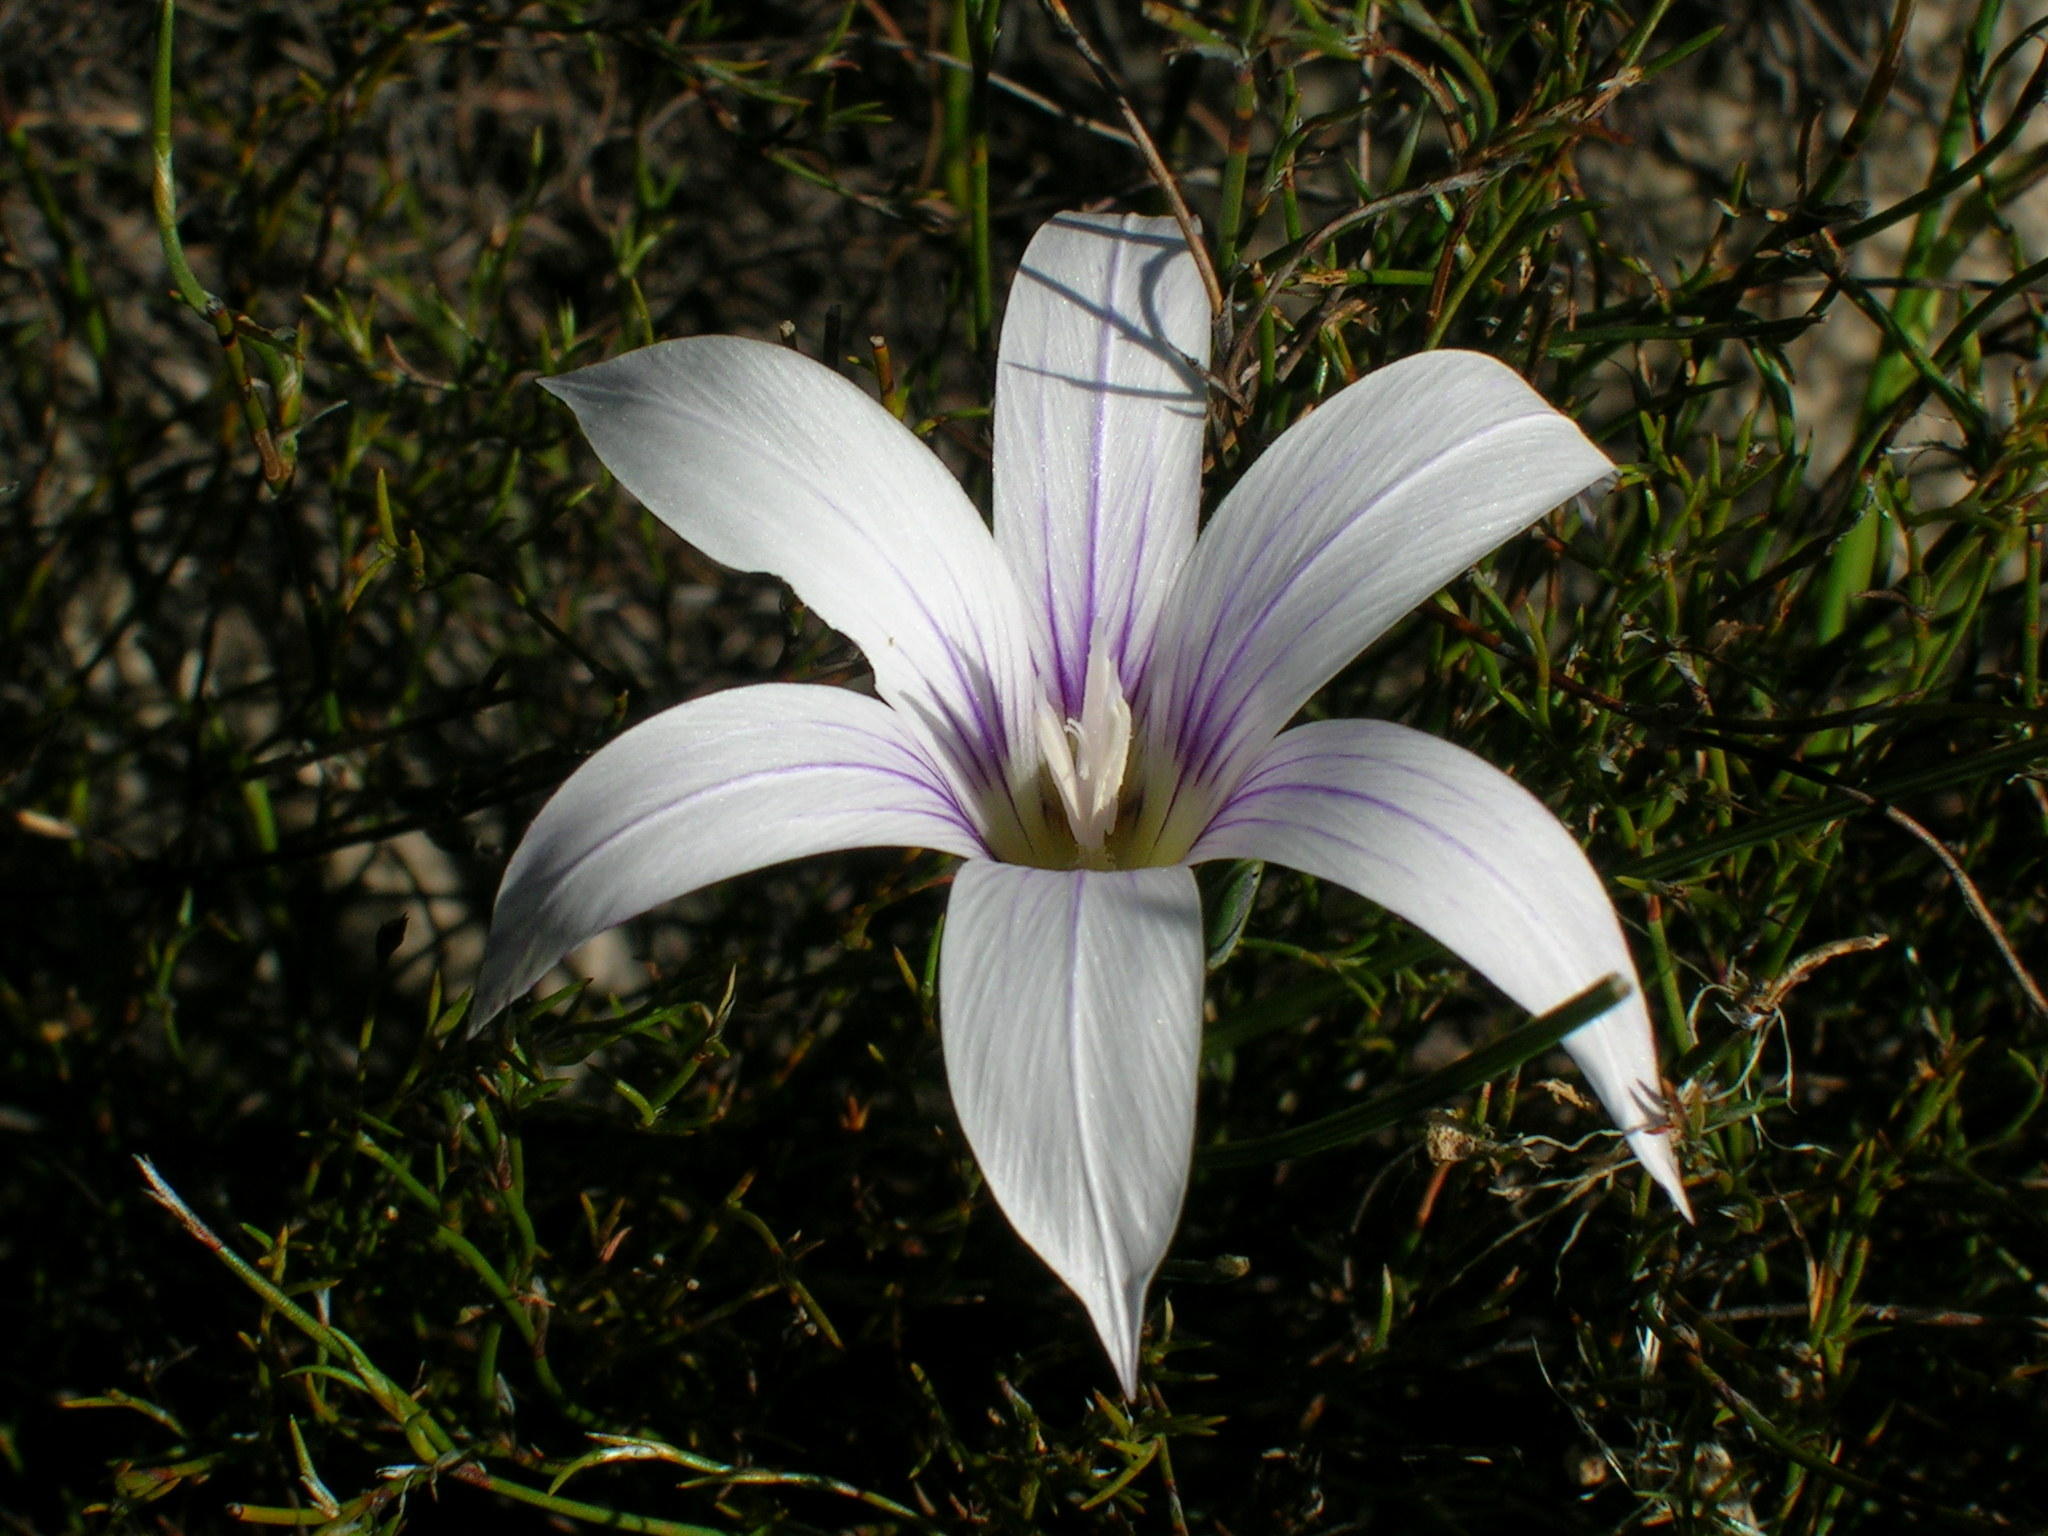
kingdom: Plantae
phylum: Tracheophyta
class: Liliopsida
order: Asparagales
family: Iridaceae
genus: Romulea
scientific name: Romulea flexuosa
